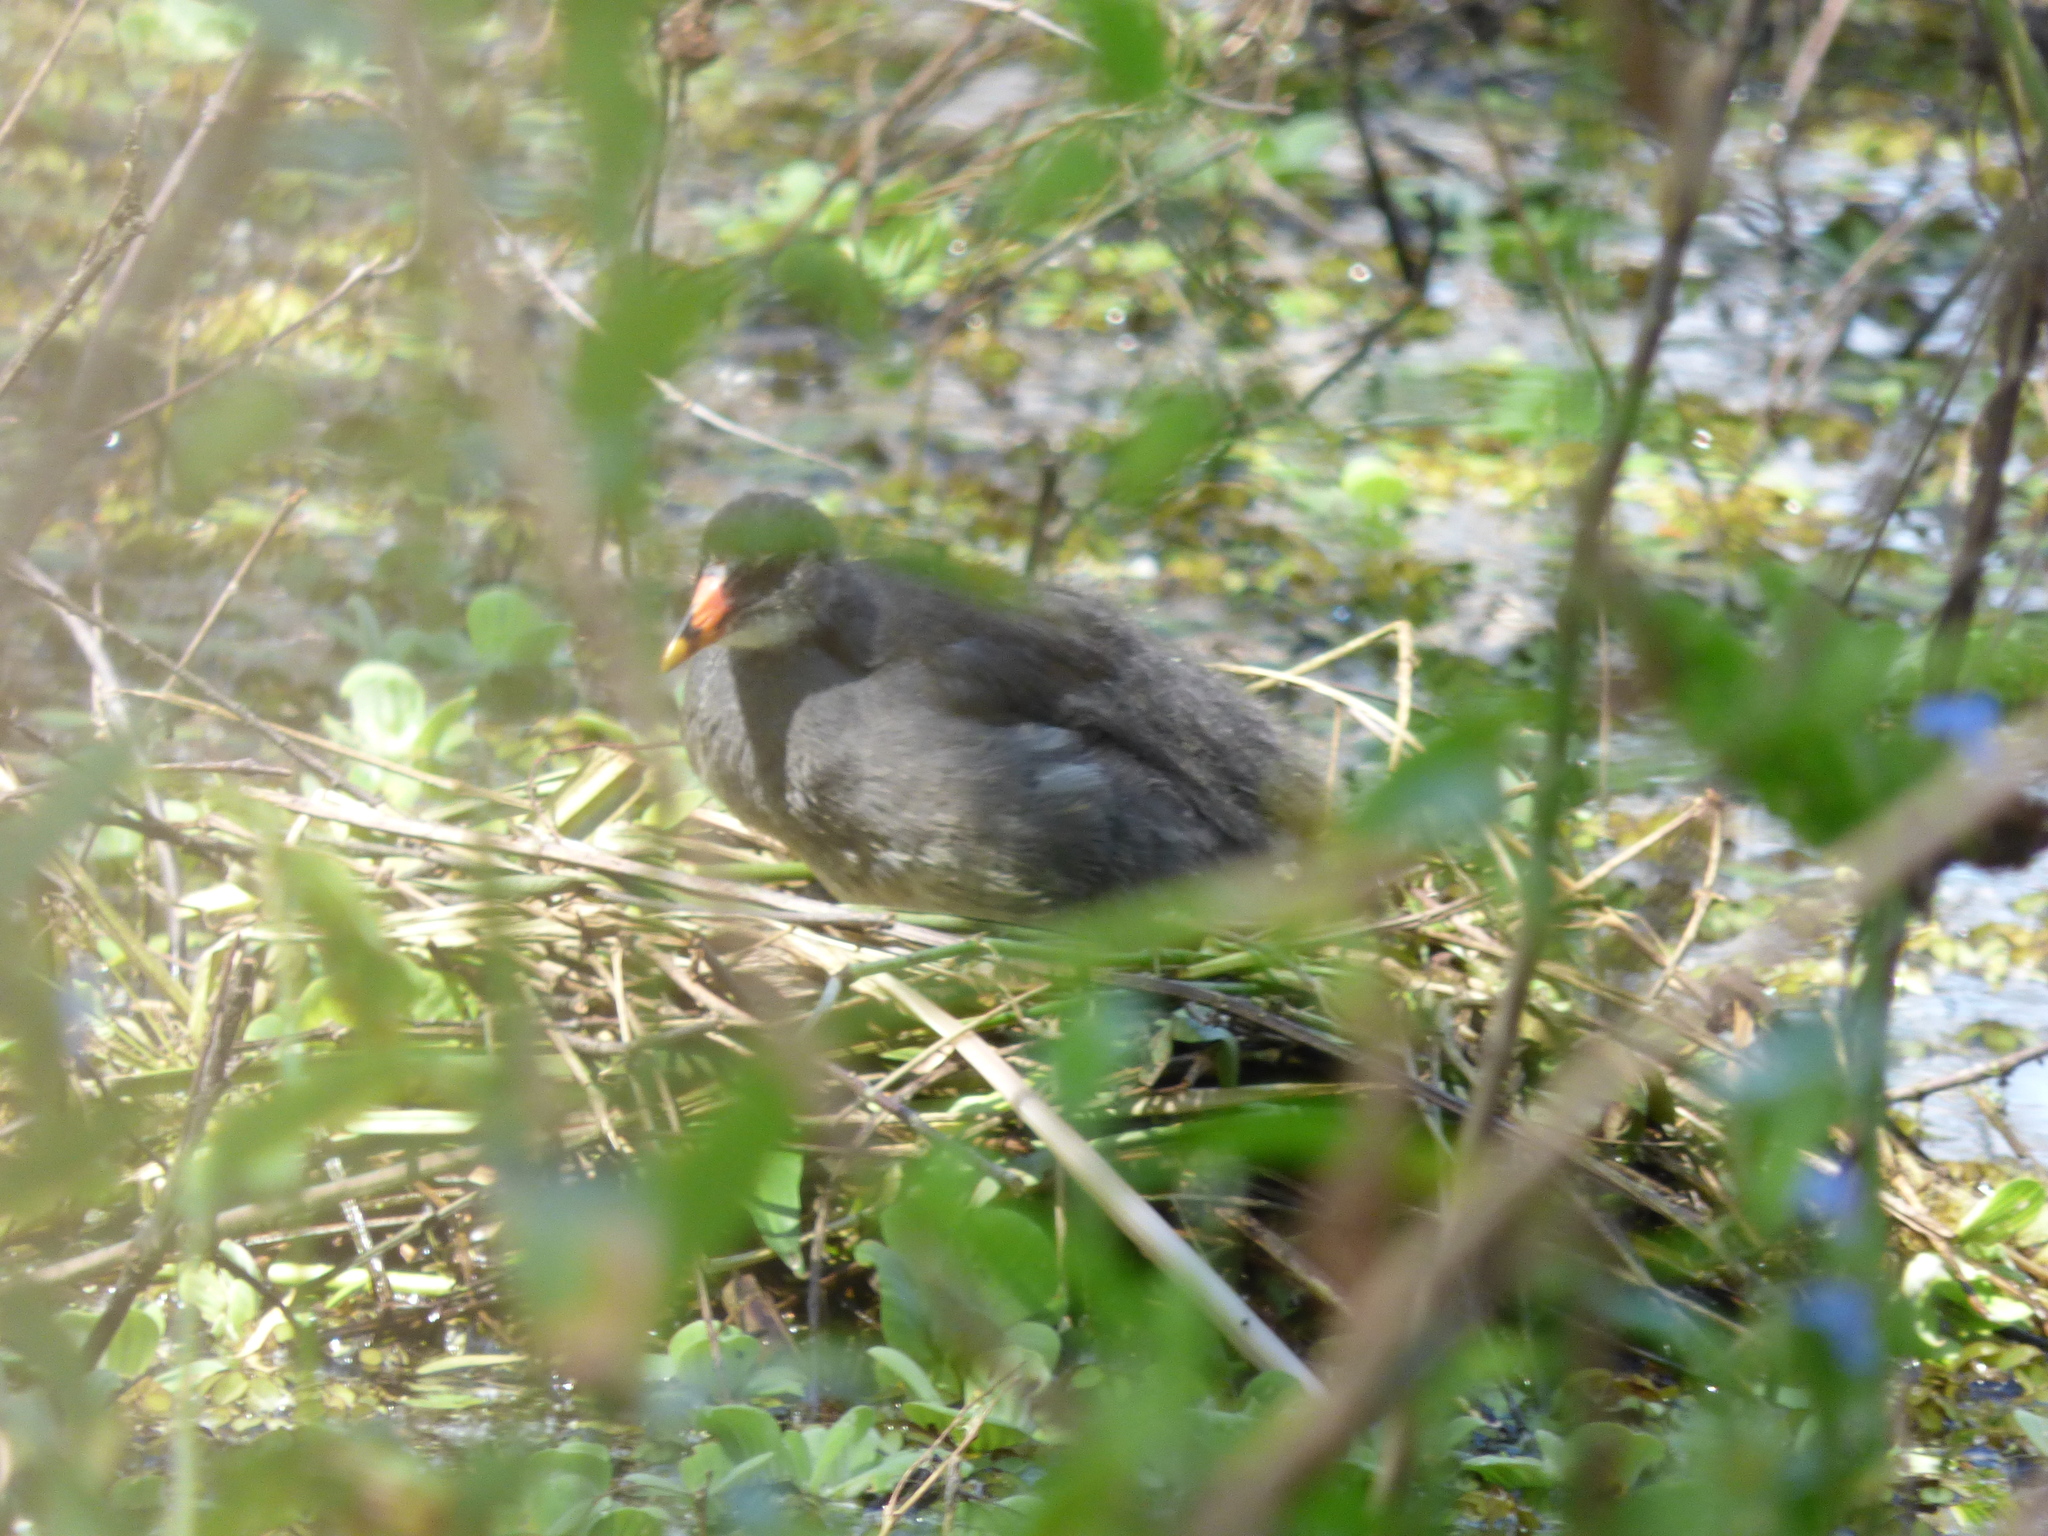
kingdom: Animalia
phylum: Chordata
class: Aves
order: Gruiformes
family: Rallidae
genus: Gallinula
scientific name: Gallinula chloropus
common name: Common moorhen
